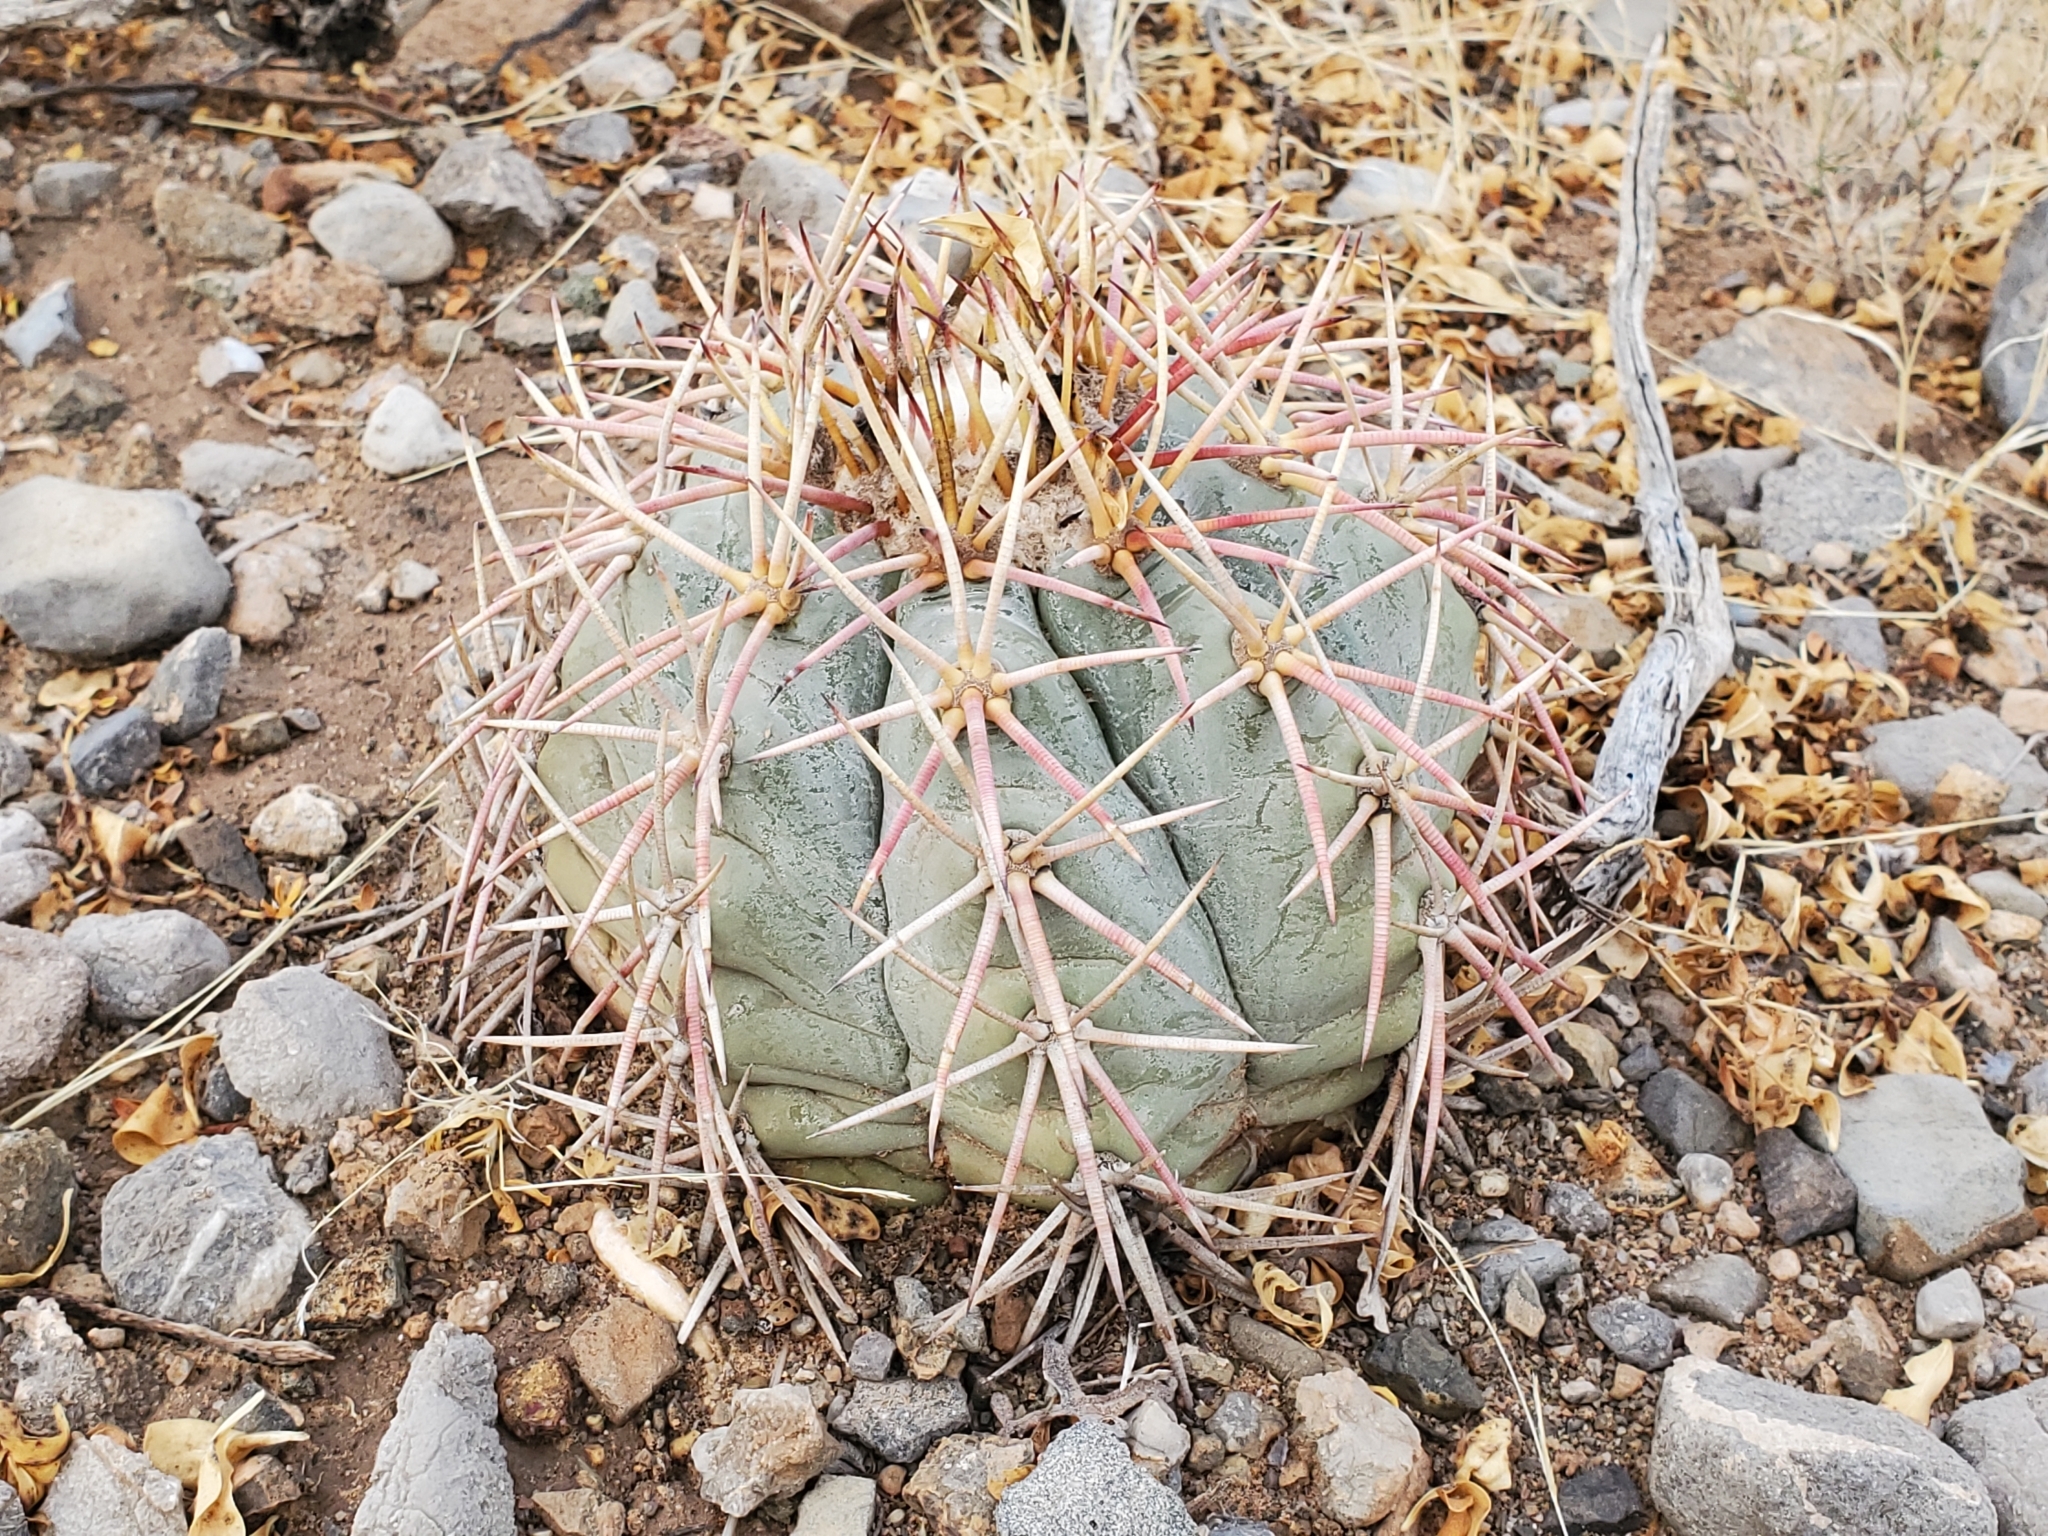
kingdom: Plantae
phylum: Tracheophyta
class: Magnoliopsida
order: Caryophyllales
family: Cactaceae
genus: Echinocactus
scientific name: Echinocactus horizonthalonius
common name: Devilshead
